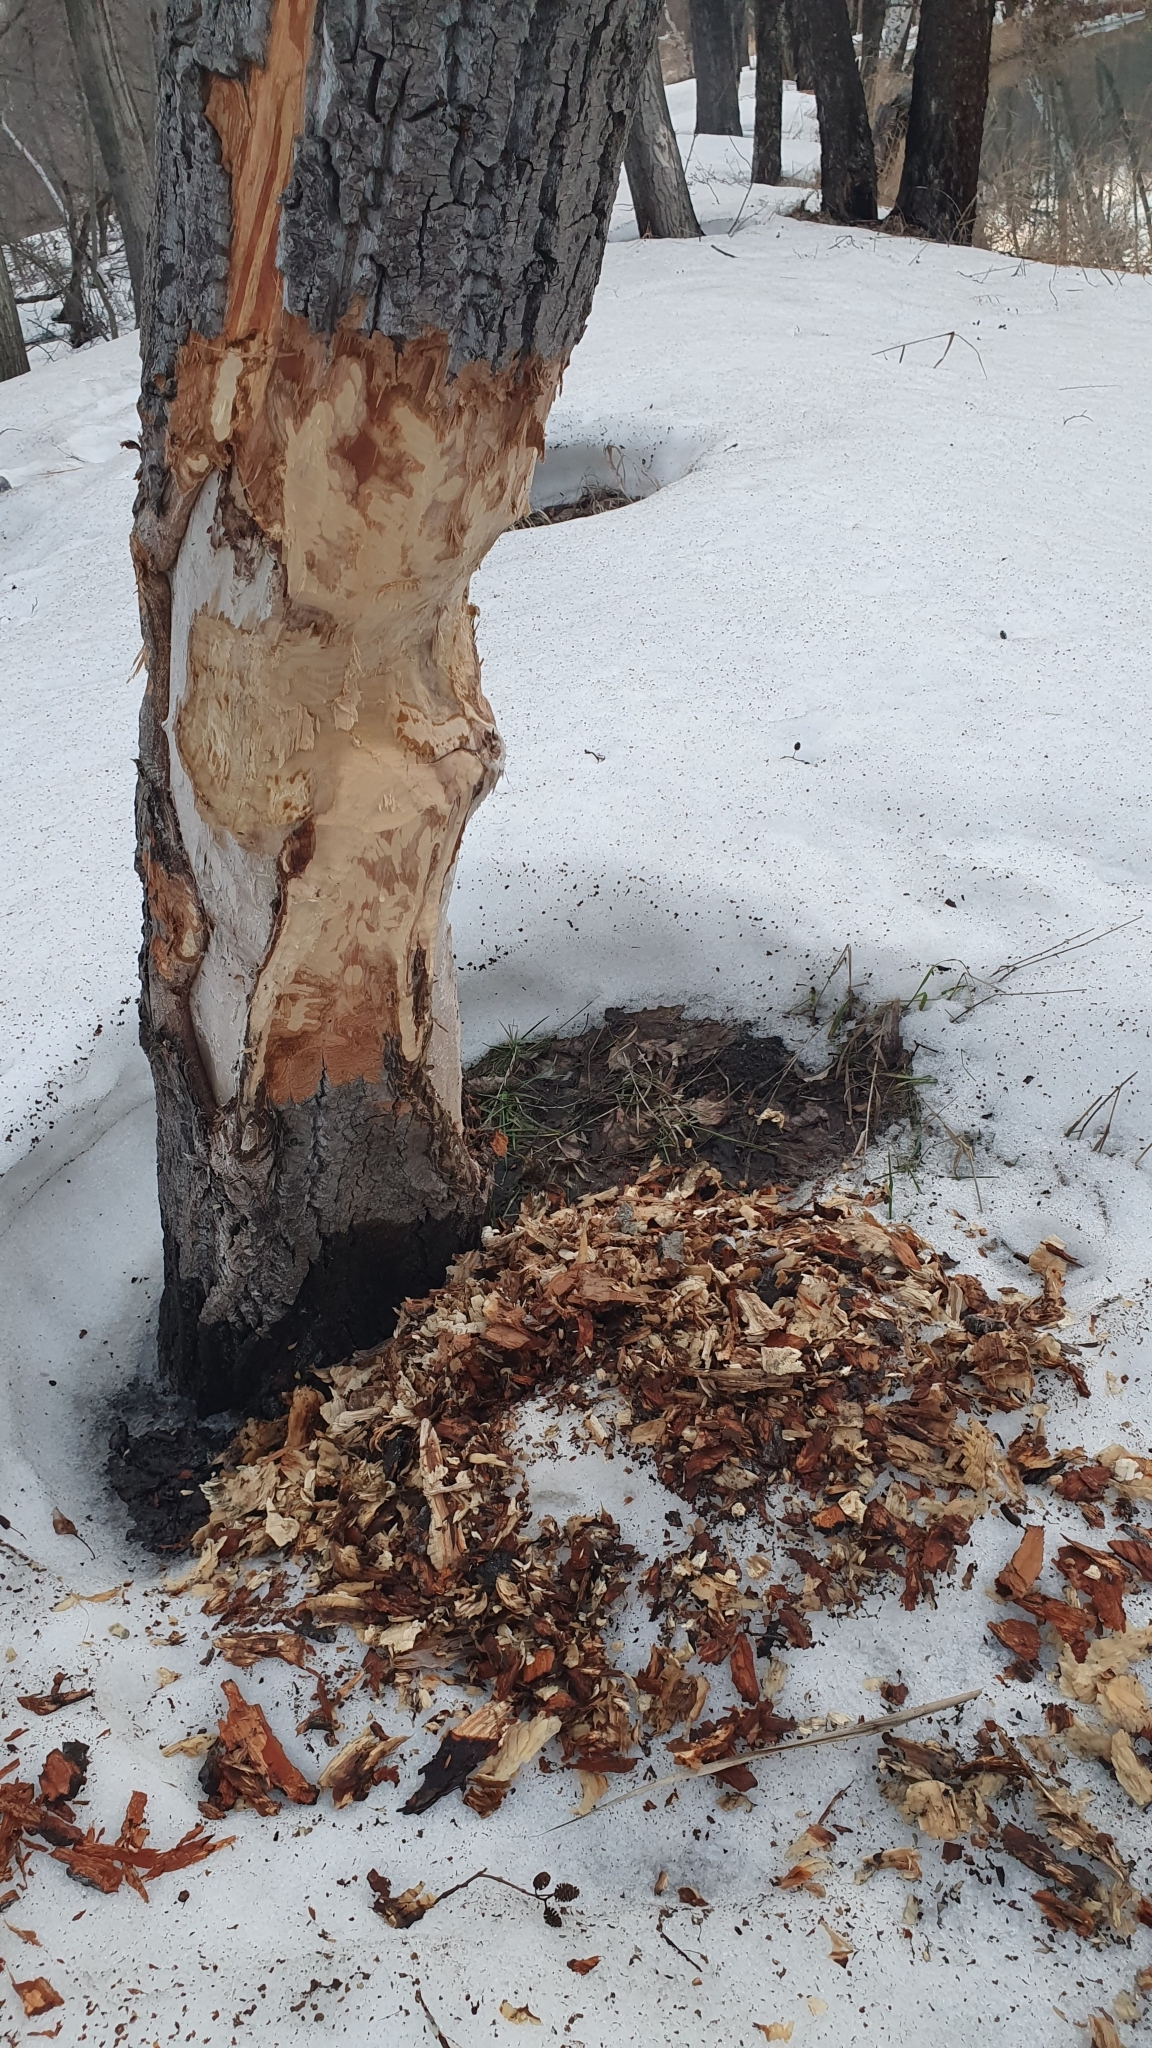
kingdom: Animalia
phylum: Chordata
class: Mammalia
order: Rodentia
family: Castoridae
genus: Castor
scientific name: Castor fiber
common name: Eurasian beaver
